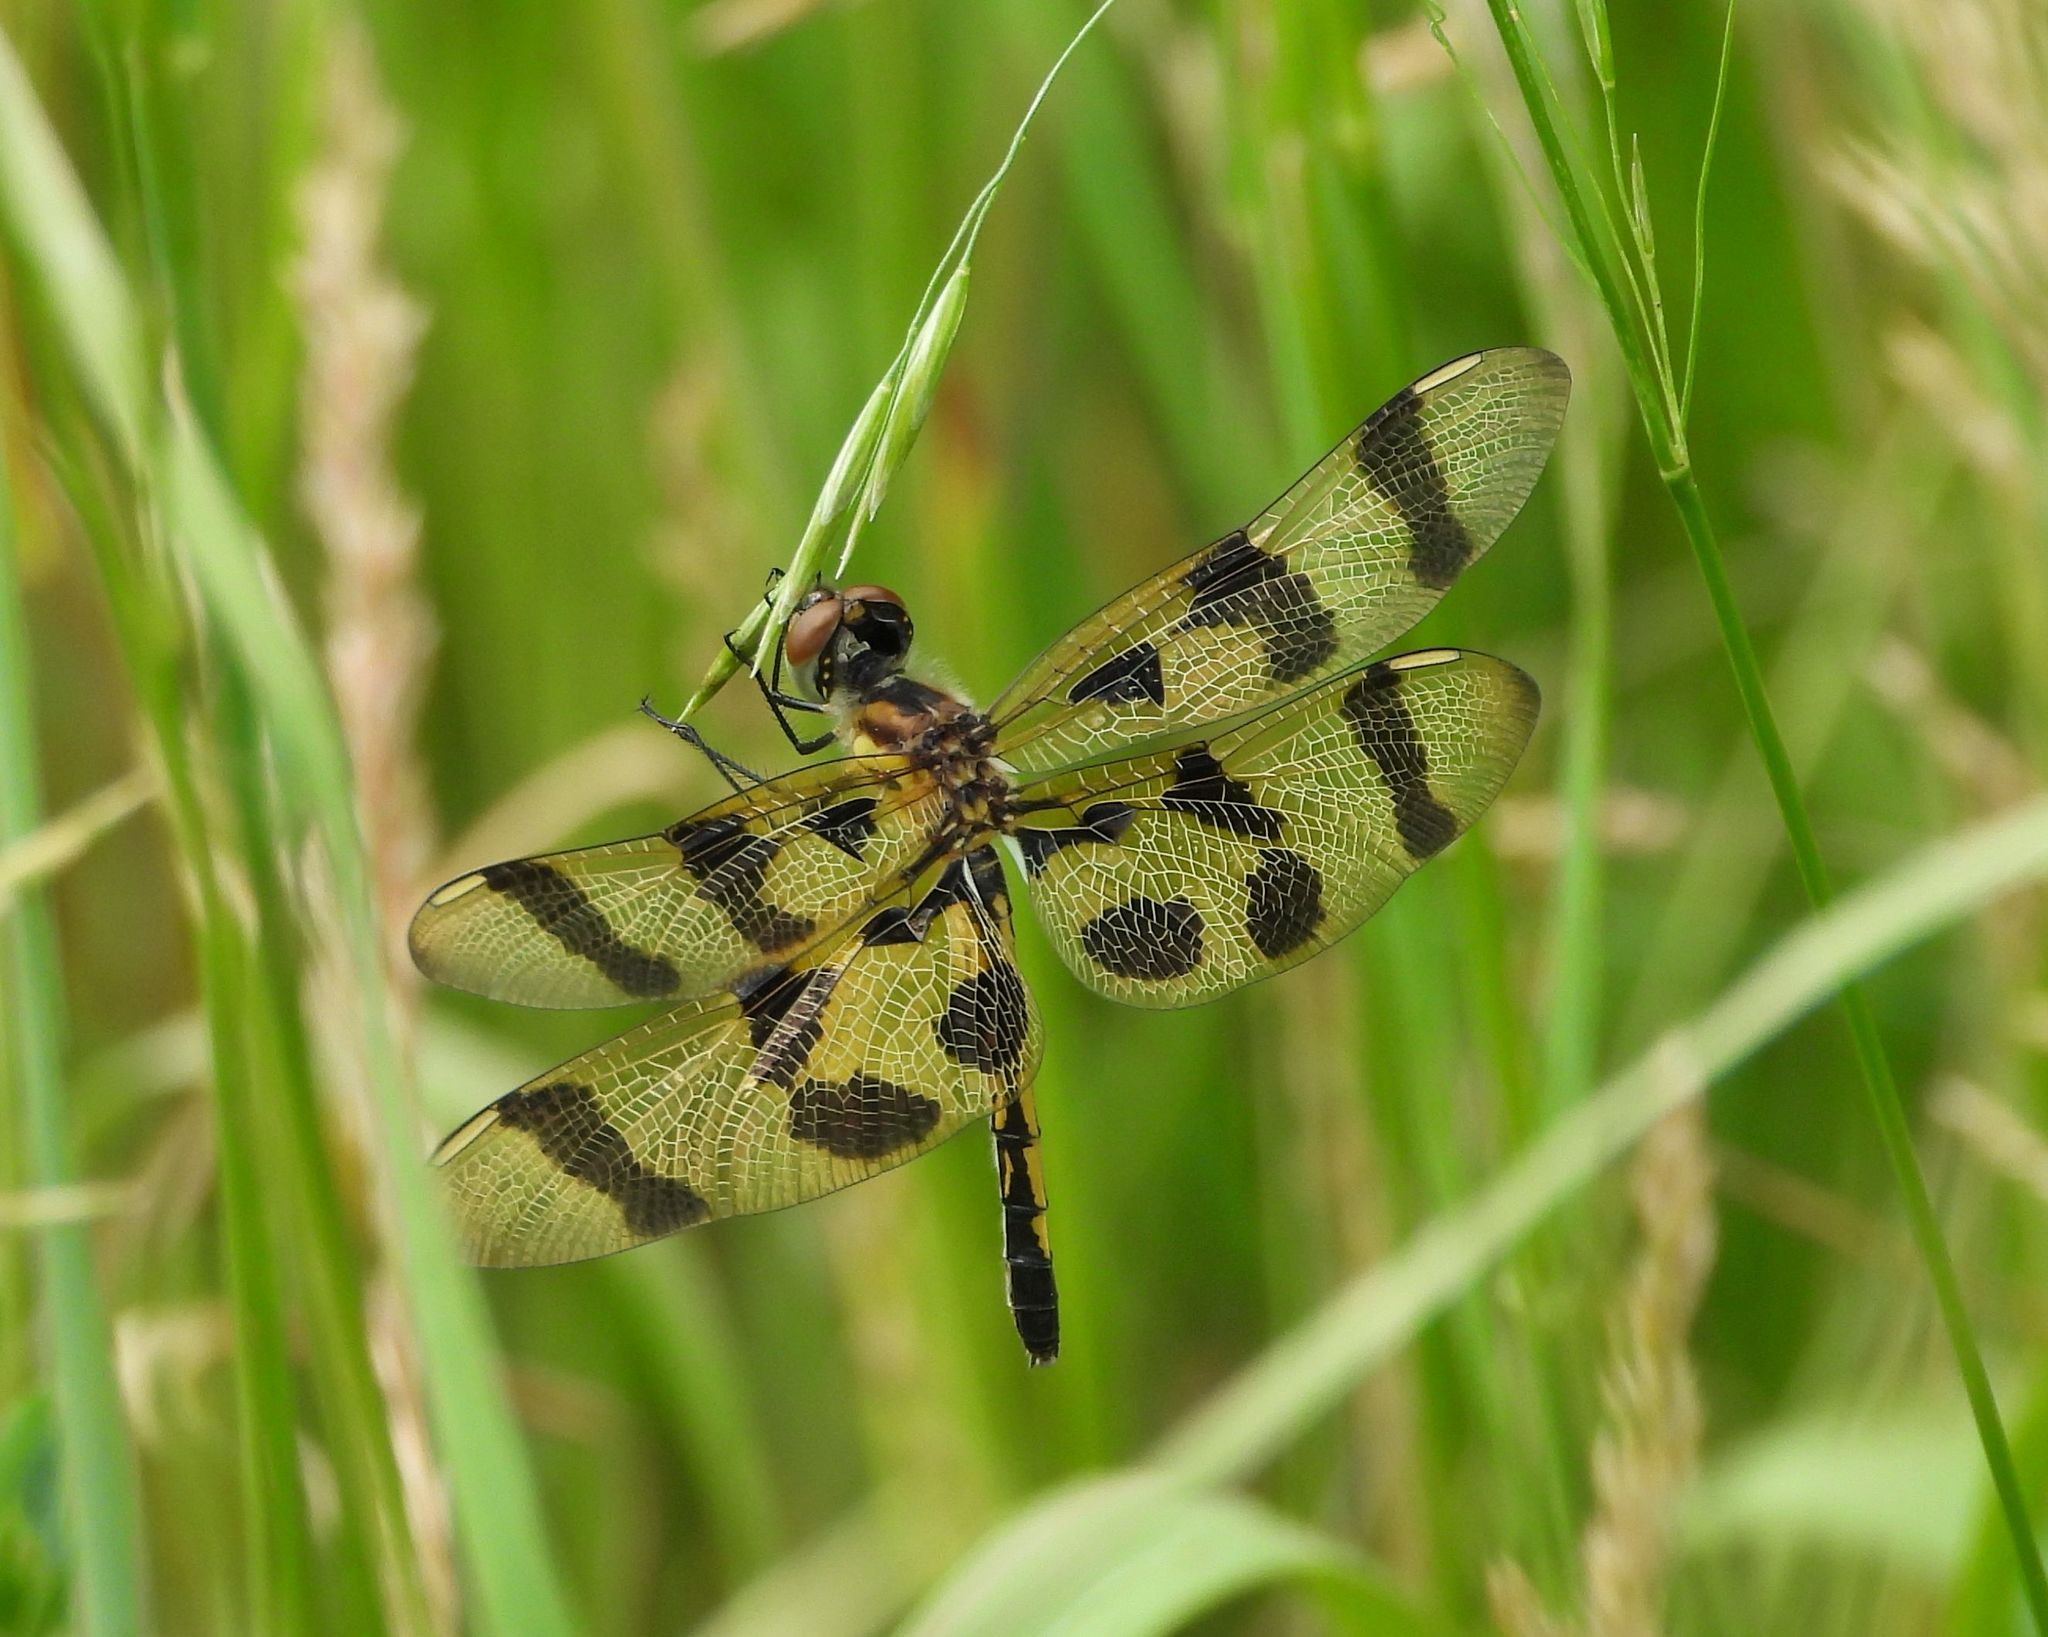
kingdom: Animalia
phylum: Arthropoda
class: Insecta
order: Odonata
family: Libellulidae
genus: Celithemis
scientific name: Celithemis eponina
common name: Halloween pennant
